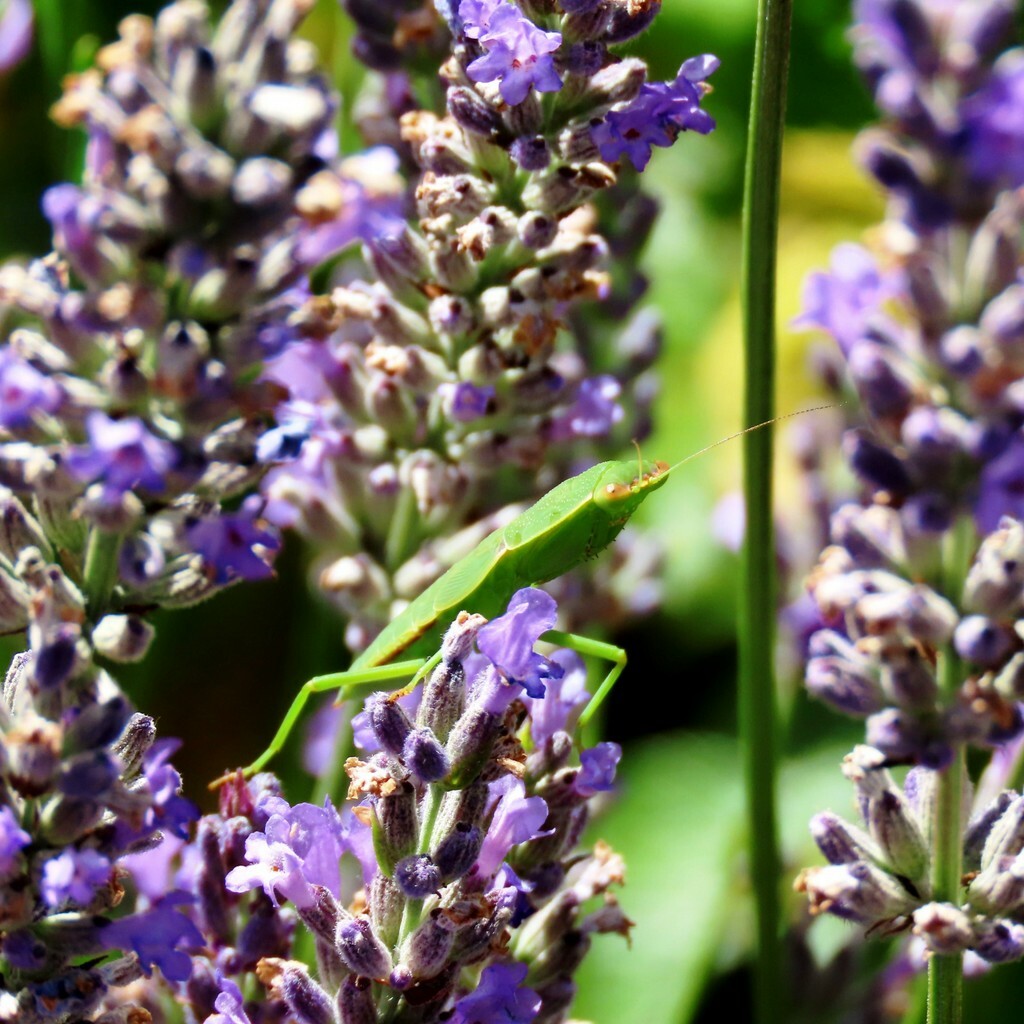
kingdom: Animalia
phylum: Arthropoda
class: Insecta
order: Mantodea
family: Mantidae
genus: Orthodera
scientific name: Orthodera ministralis
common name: Mantis
